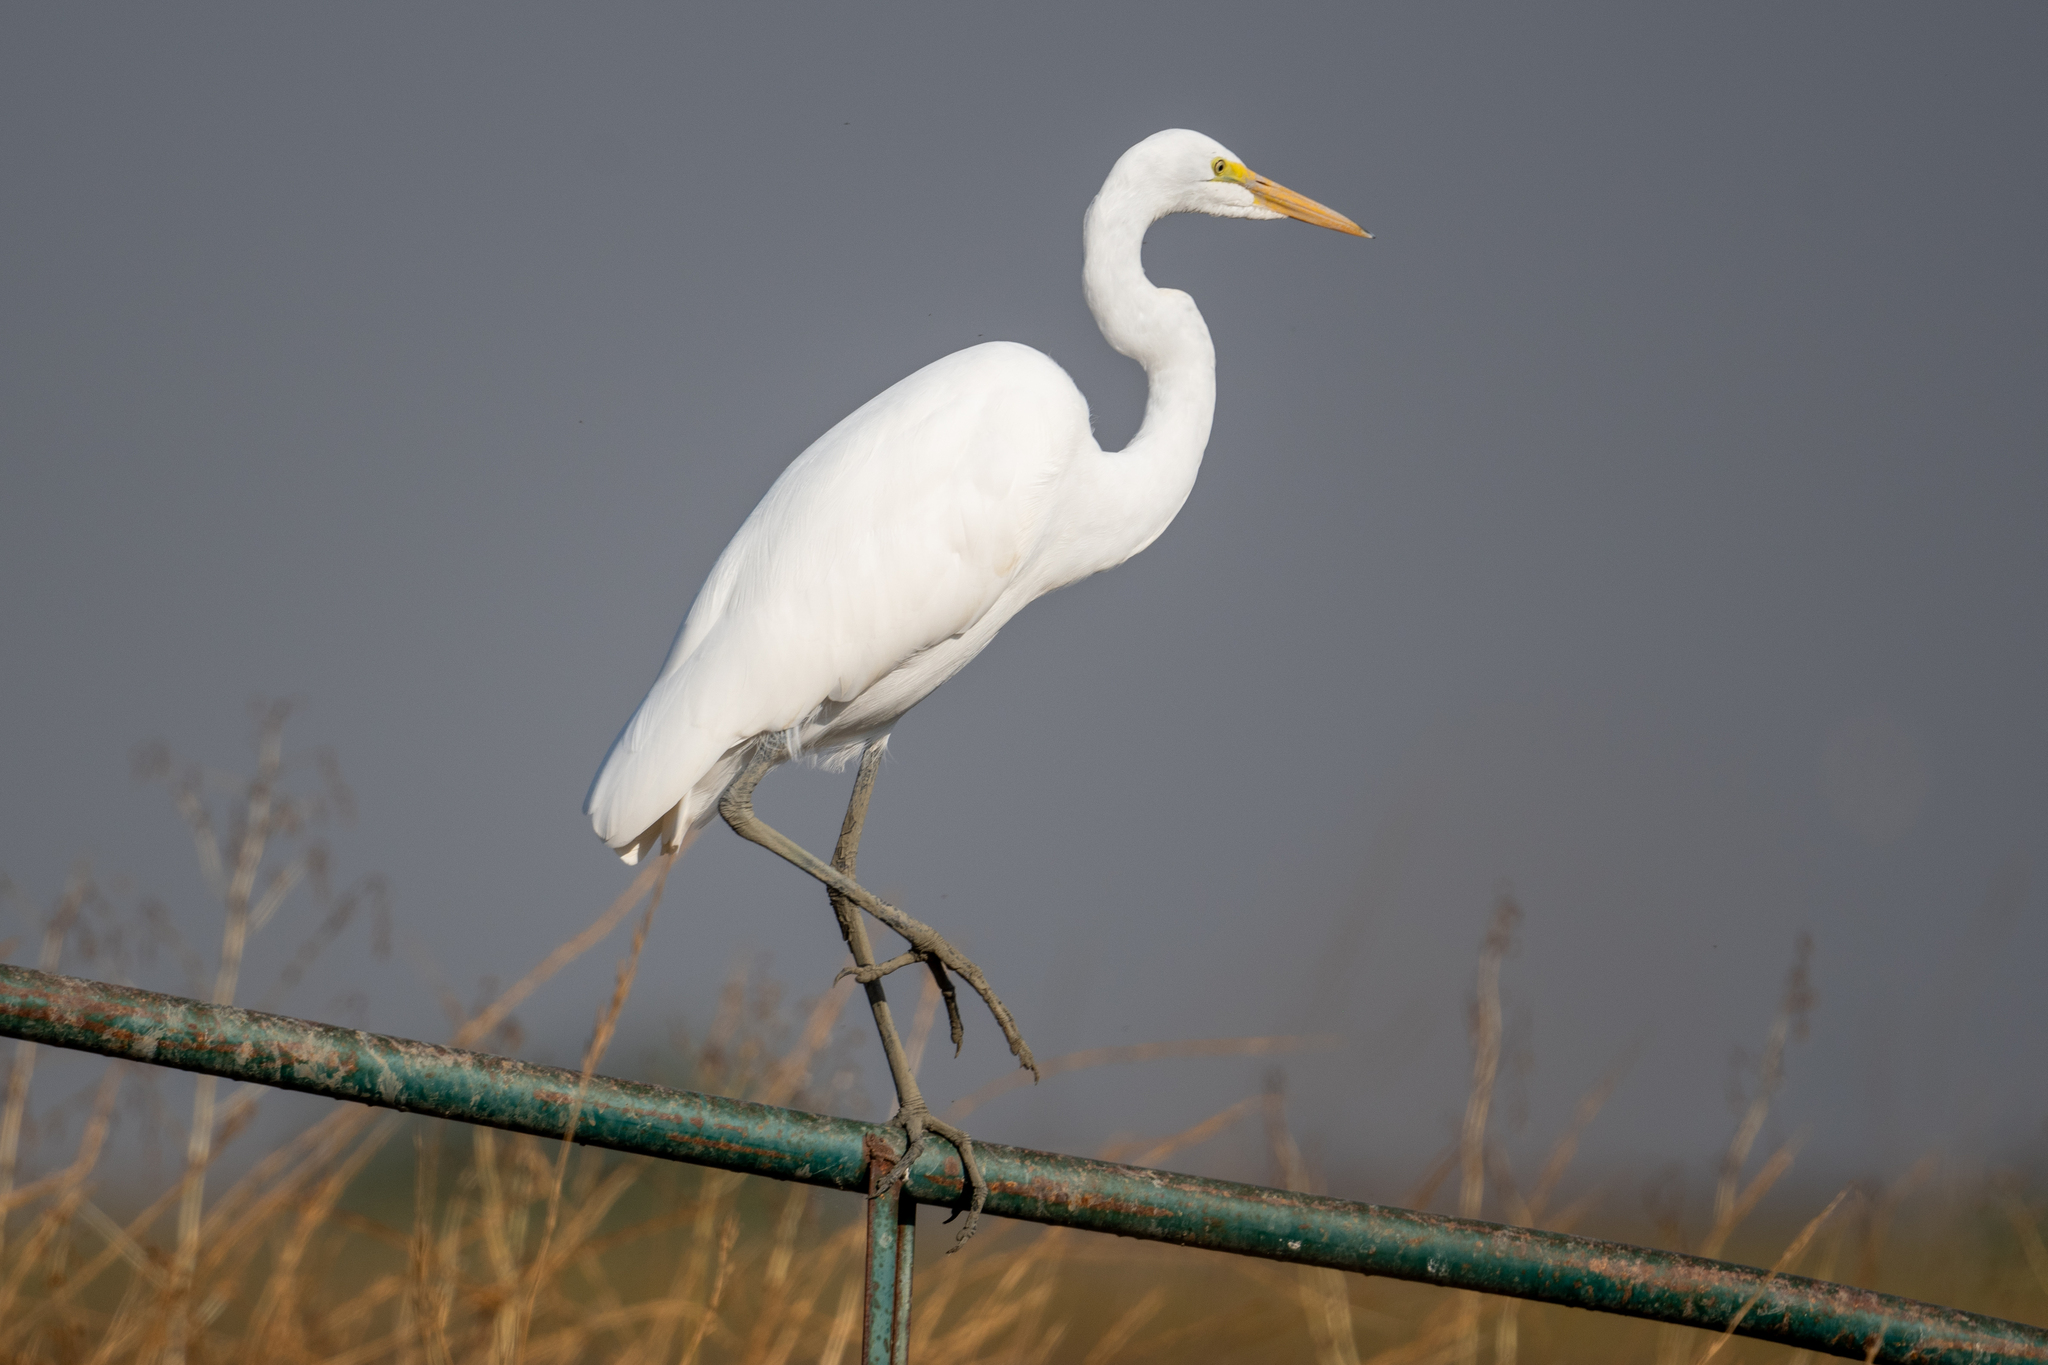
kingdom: Animalia
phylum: Chordata
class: Aves
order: Pelecaniformes
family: Ardeidae
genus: Ardea
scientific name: Ardea alba
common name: Great egret
